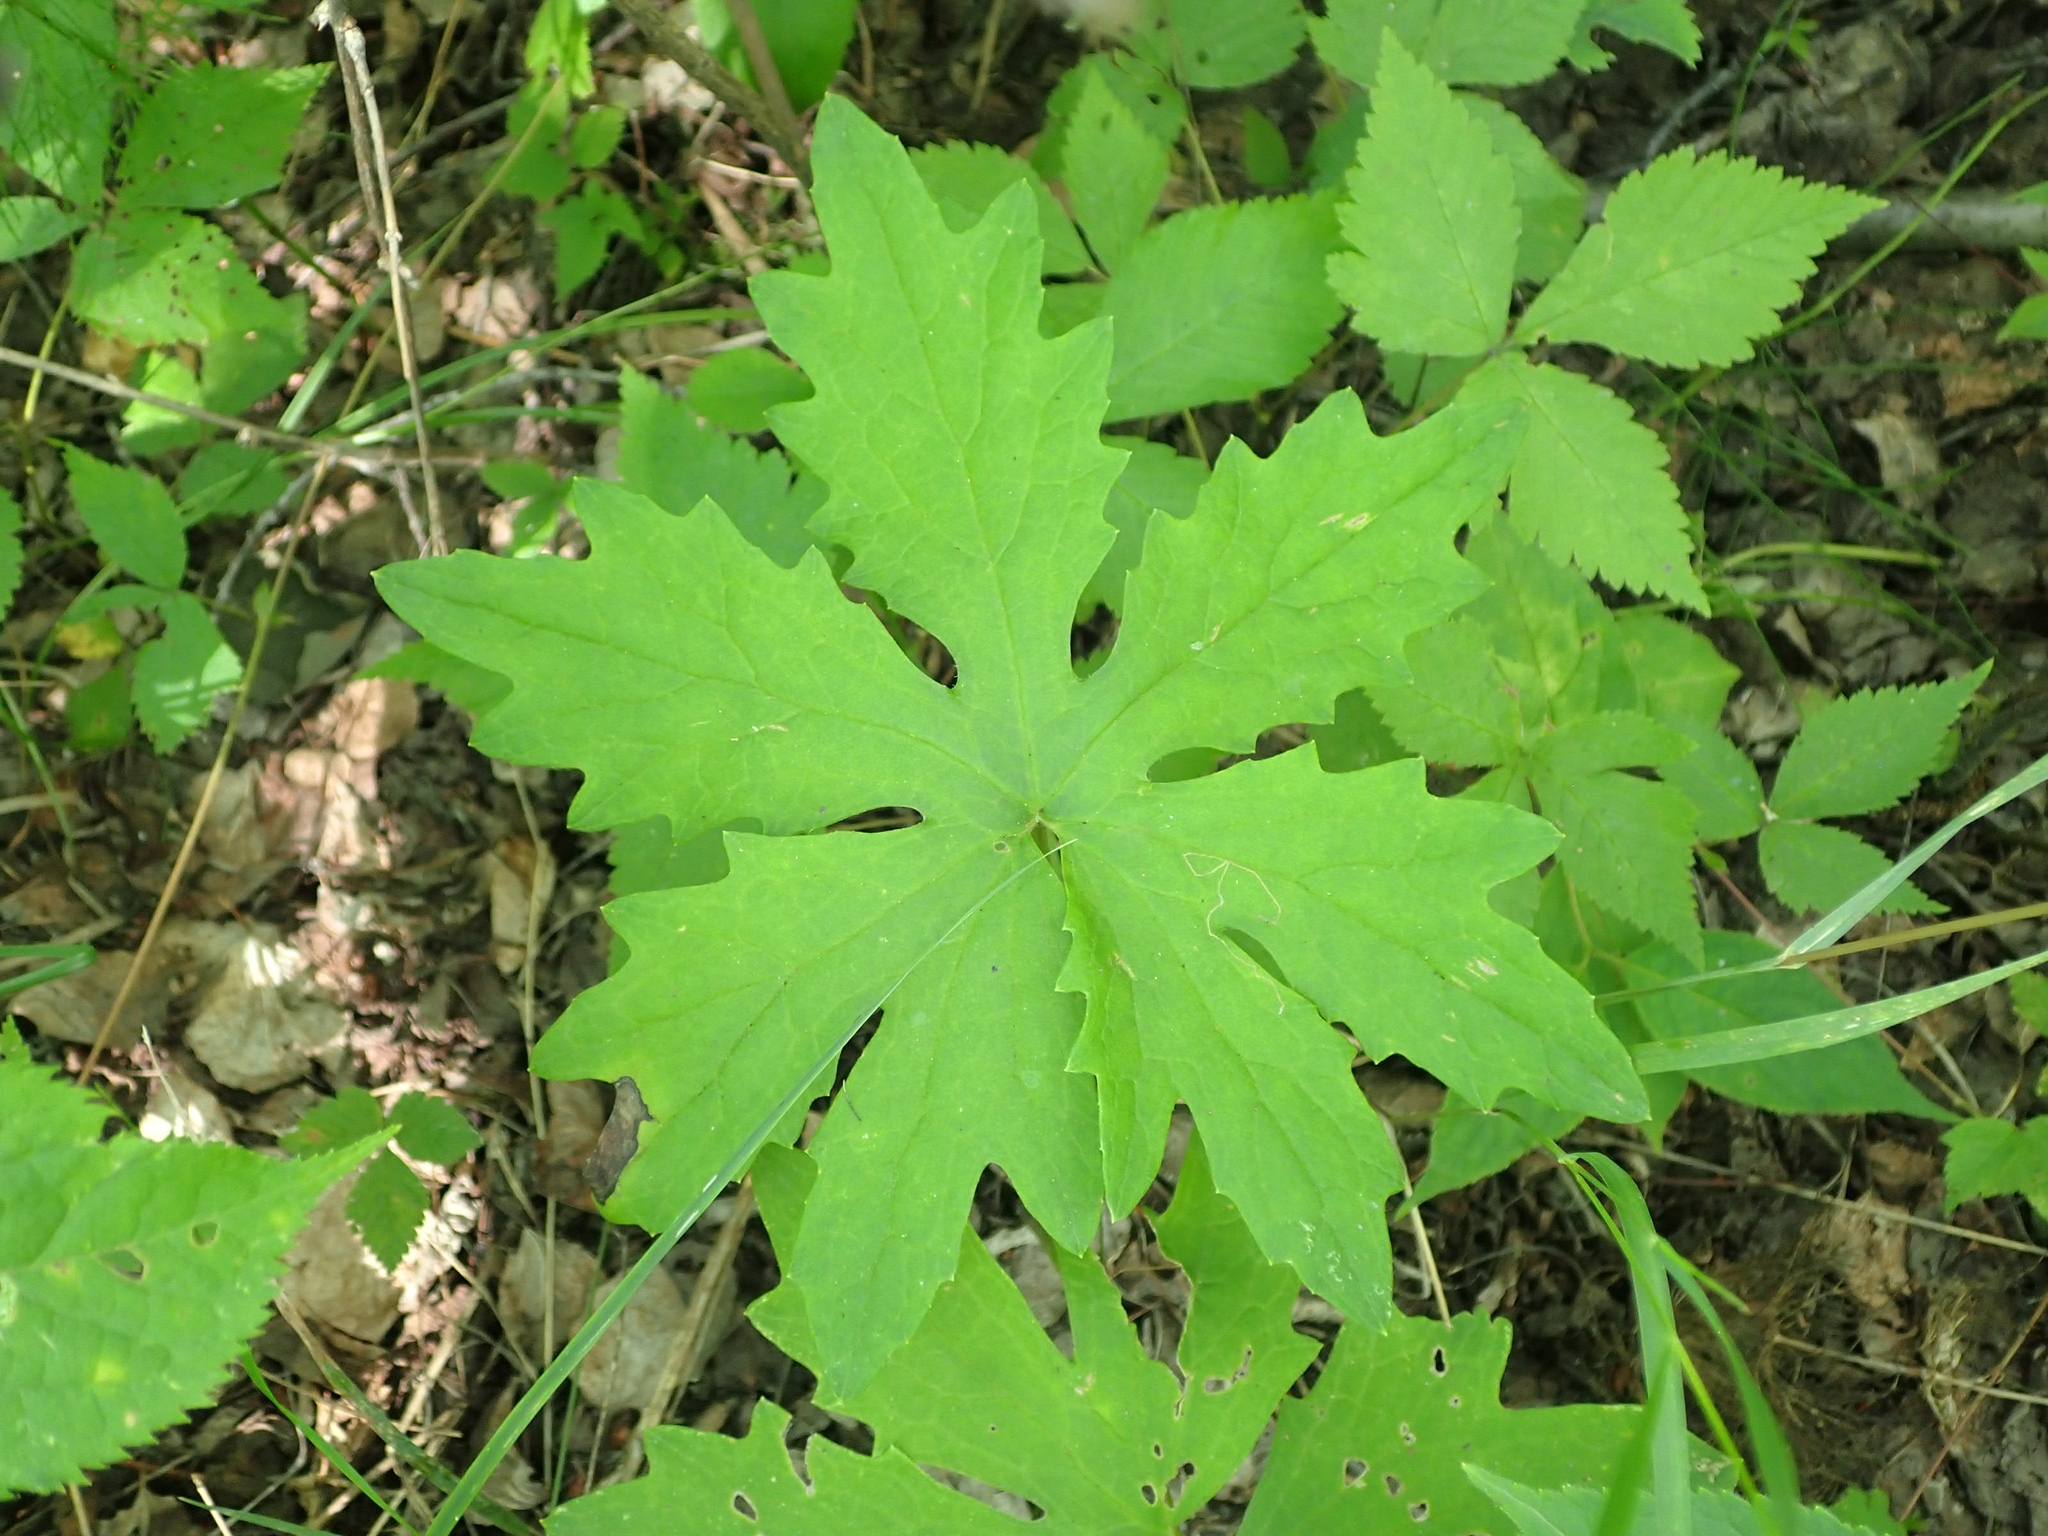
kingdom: Plantae
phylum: Tracheophyta
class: Magnoliopsida
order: Asterales
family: Asteraceae
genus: Petasites
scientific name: Petasites frigidus
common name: Arctic butterbur
